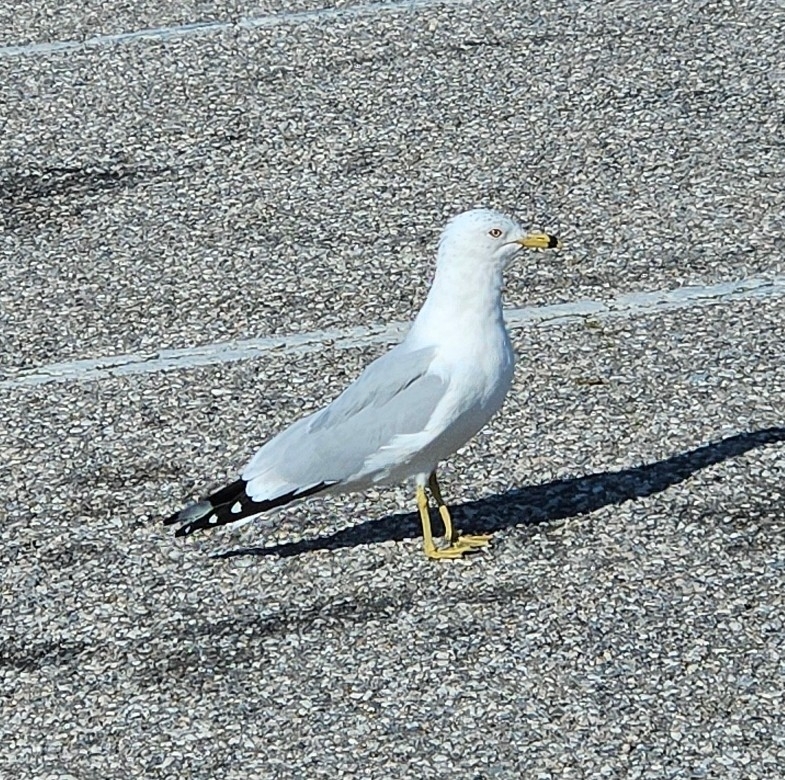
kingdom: Animalia
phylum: Chordata
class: Aves
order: Charadriiformes
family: Laridae
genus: Larus
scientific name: Larus delawarensis
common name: Ring-billed gull
